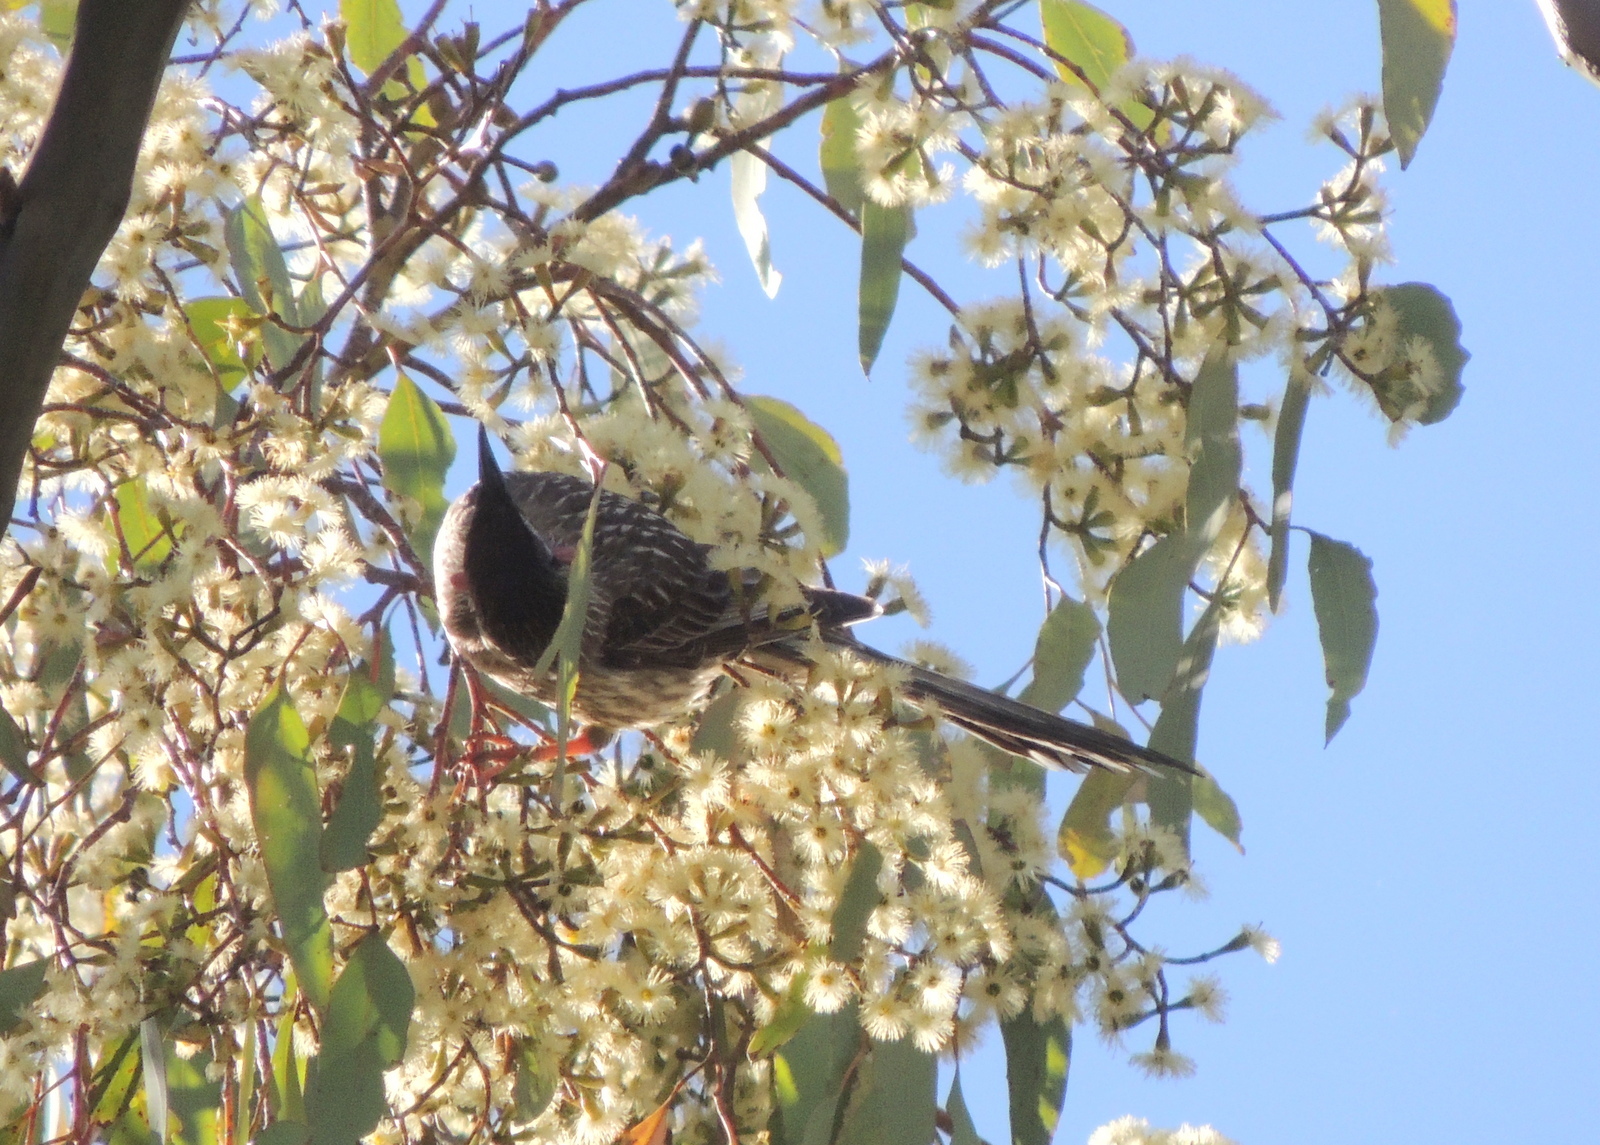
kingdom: Animalia
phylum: Chordata
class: Aves
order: Passeriformes
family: Meliphagidae
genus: Anthochaera
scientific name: Anthochaera carunculata
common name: Red wattlebird
